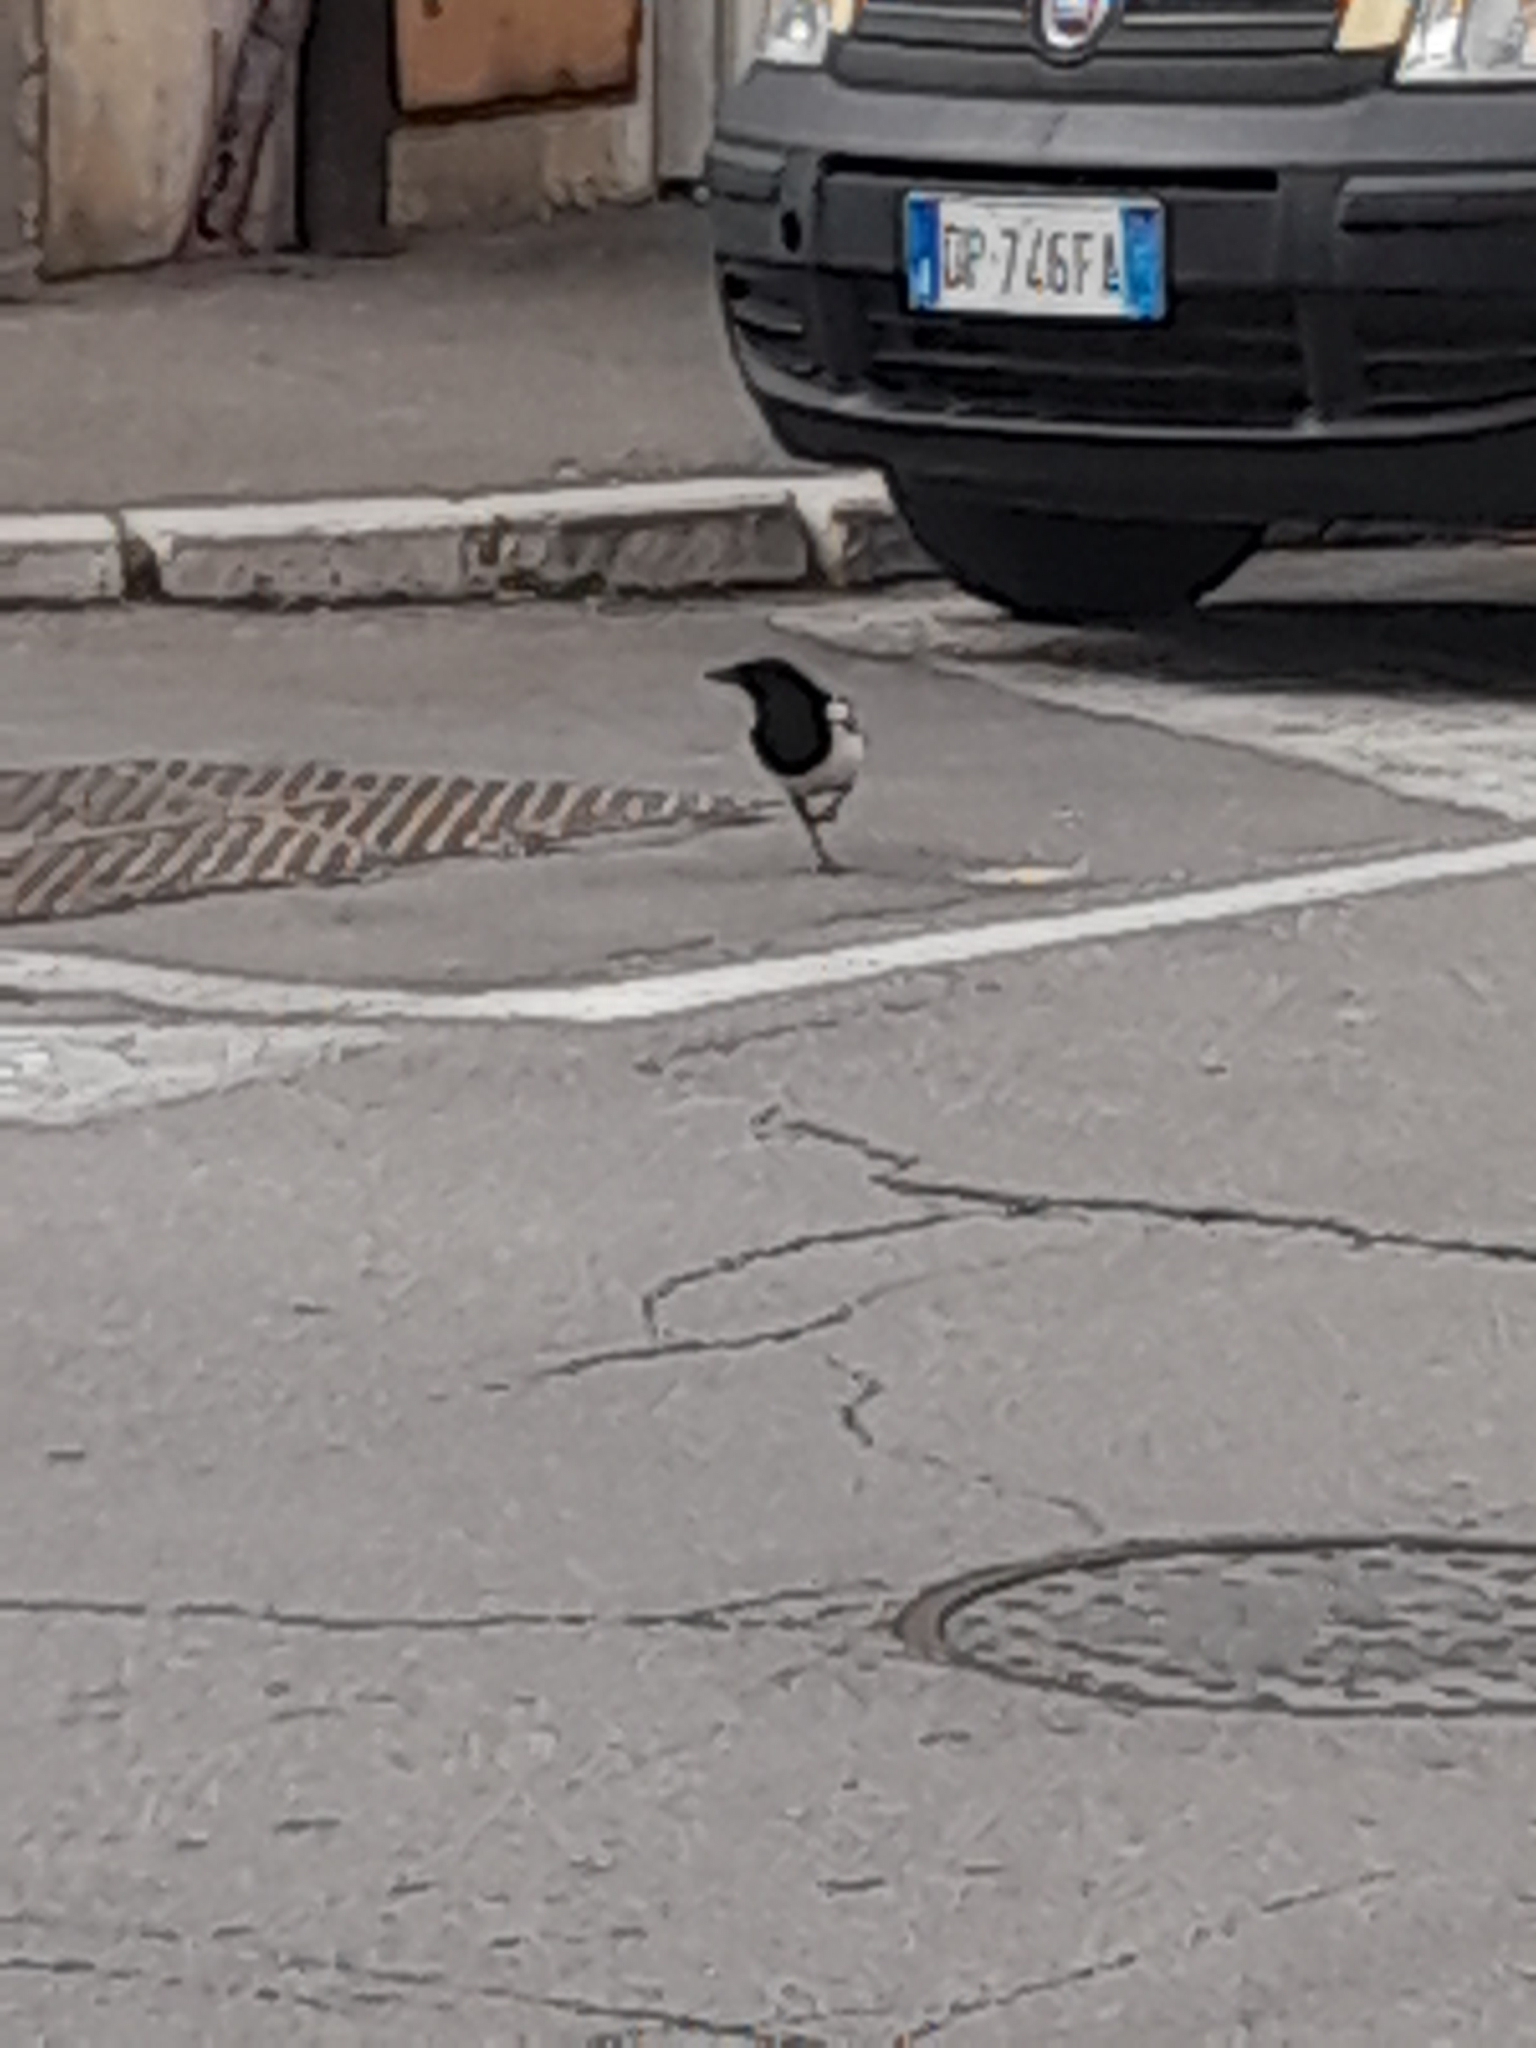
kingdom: Animalia
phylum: Chordata
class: Aves
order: Passeriformes
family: Corvidae
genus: Pica
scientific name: Pica pica
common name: Eurasian magpie
